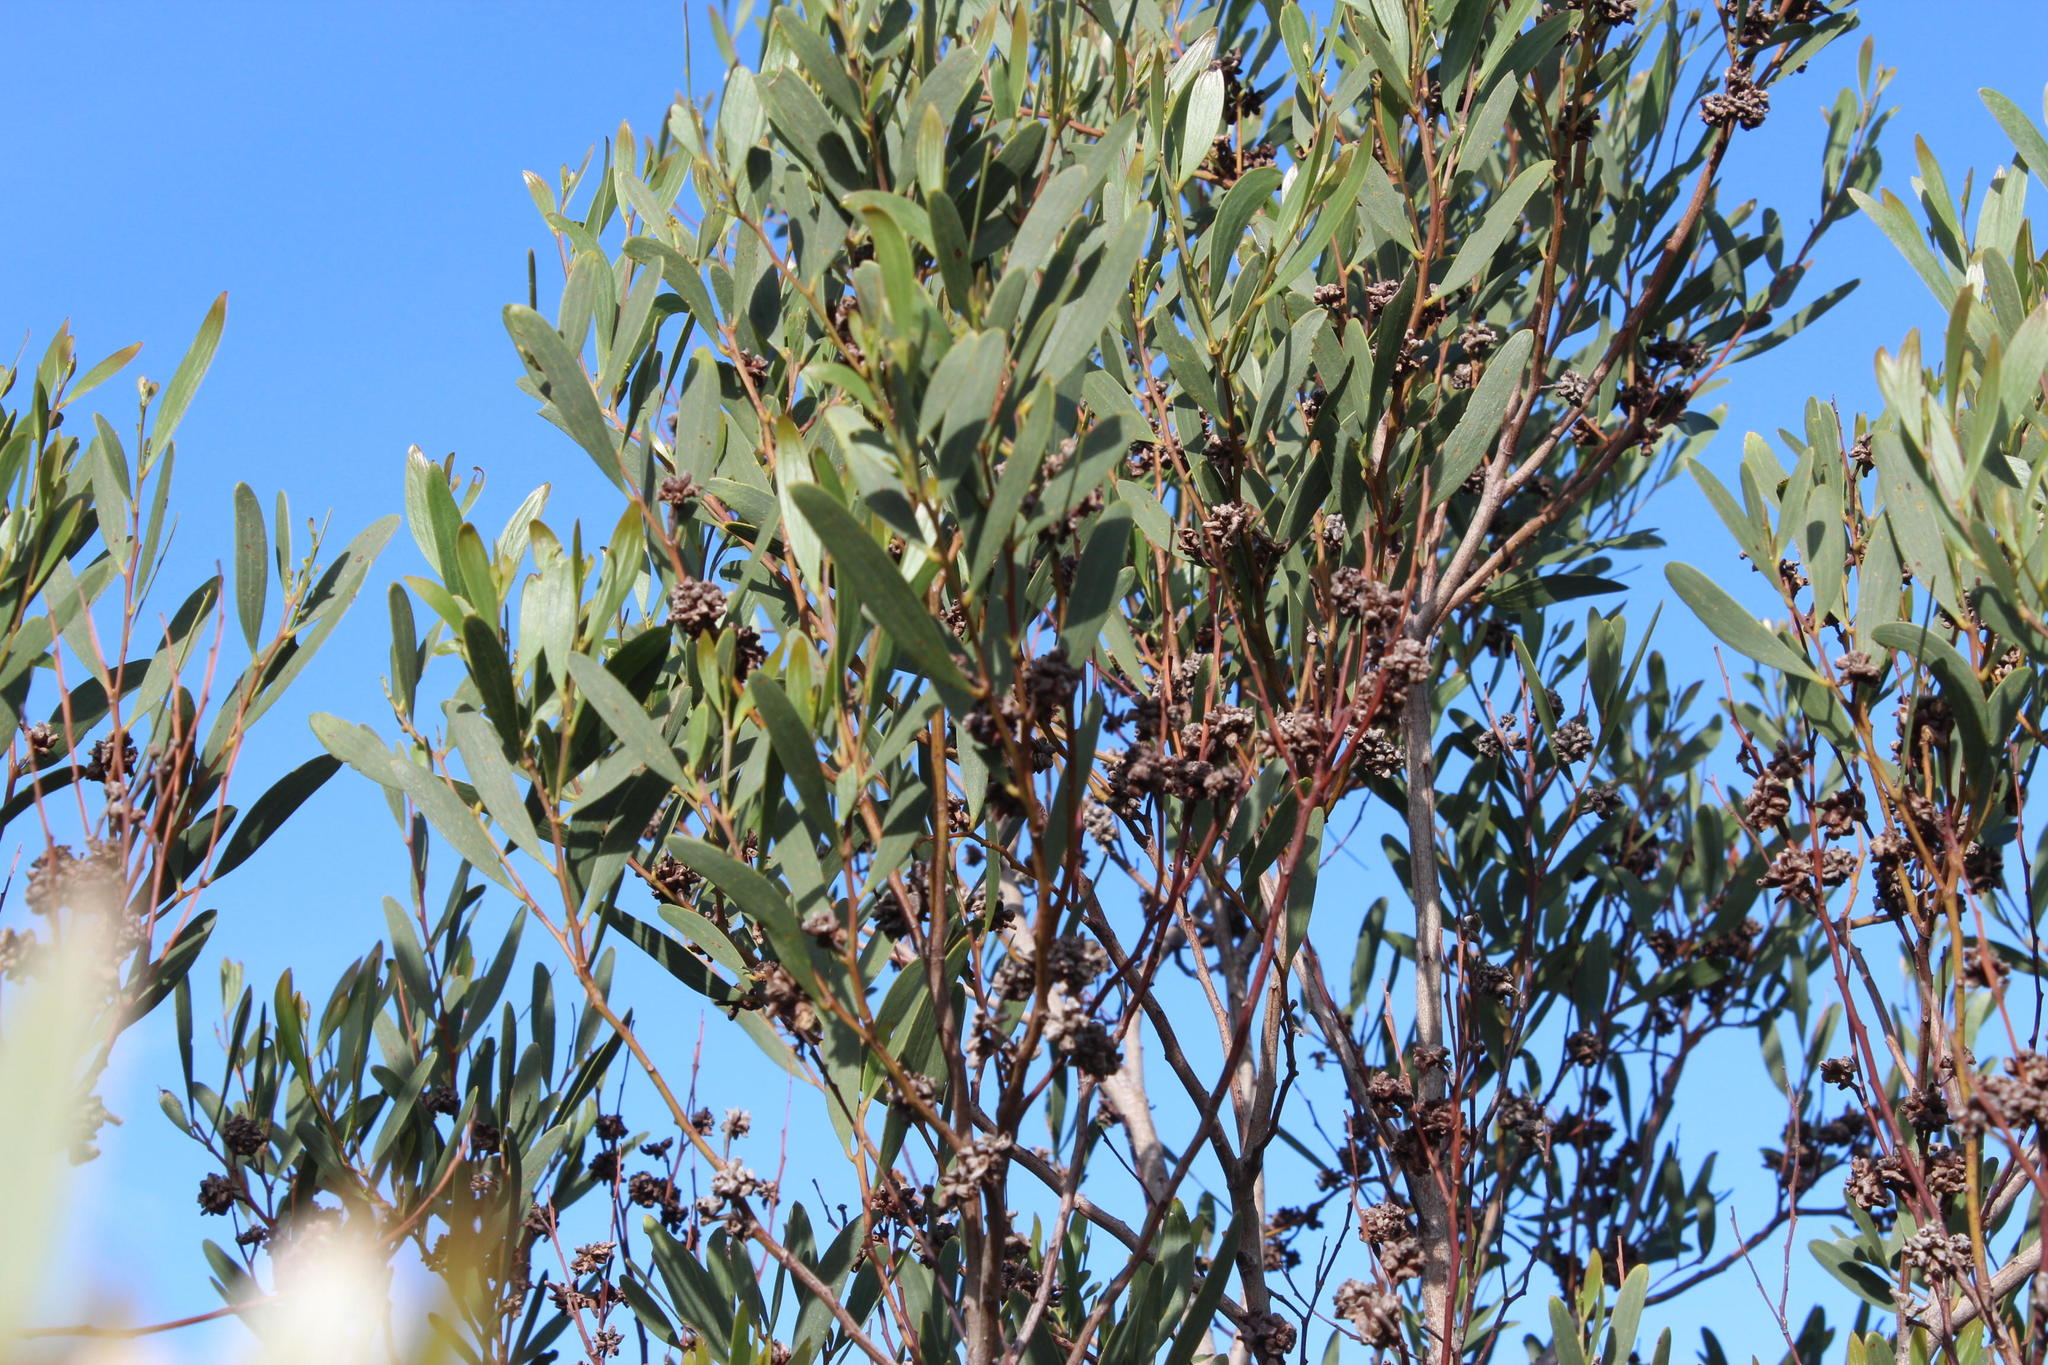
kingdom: Plantae
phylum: Tracheophyta
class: Magnoliopsida
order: Fabales
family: Fabaceae
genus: Acacia
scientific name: Acacia cyclops
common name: Coastal wattle
